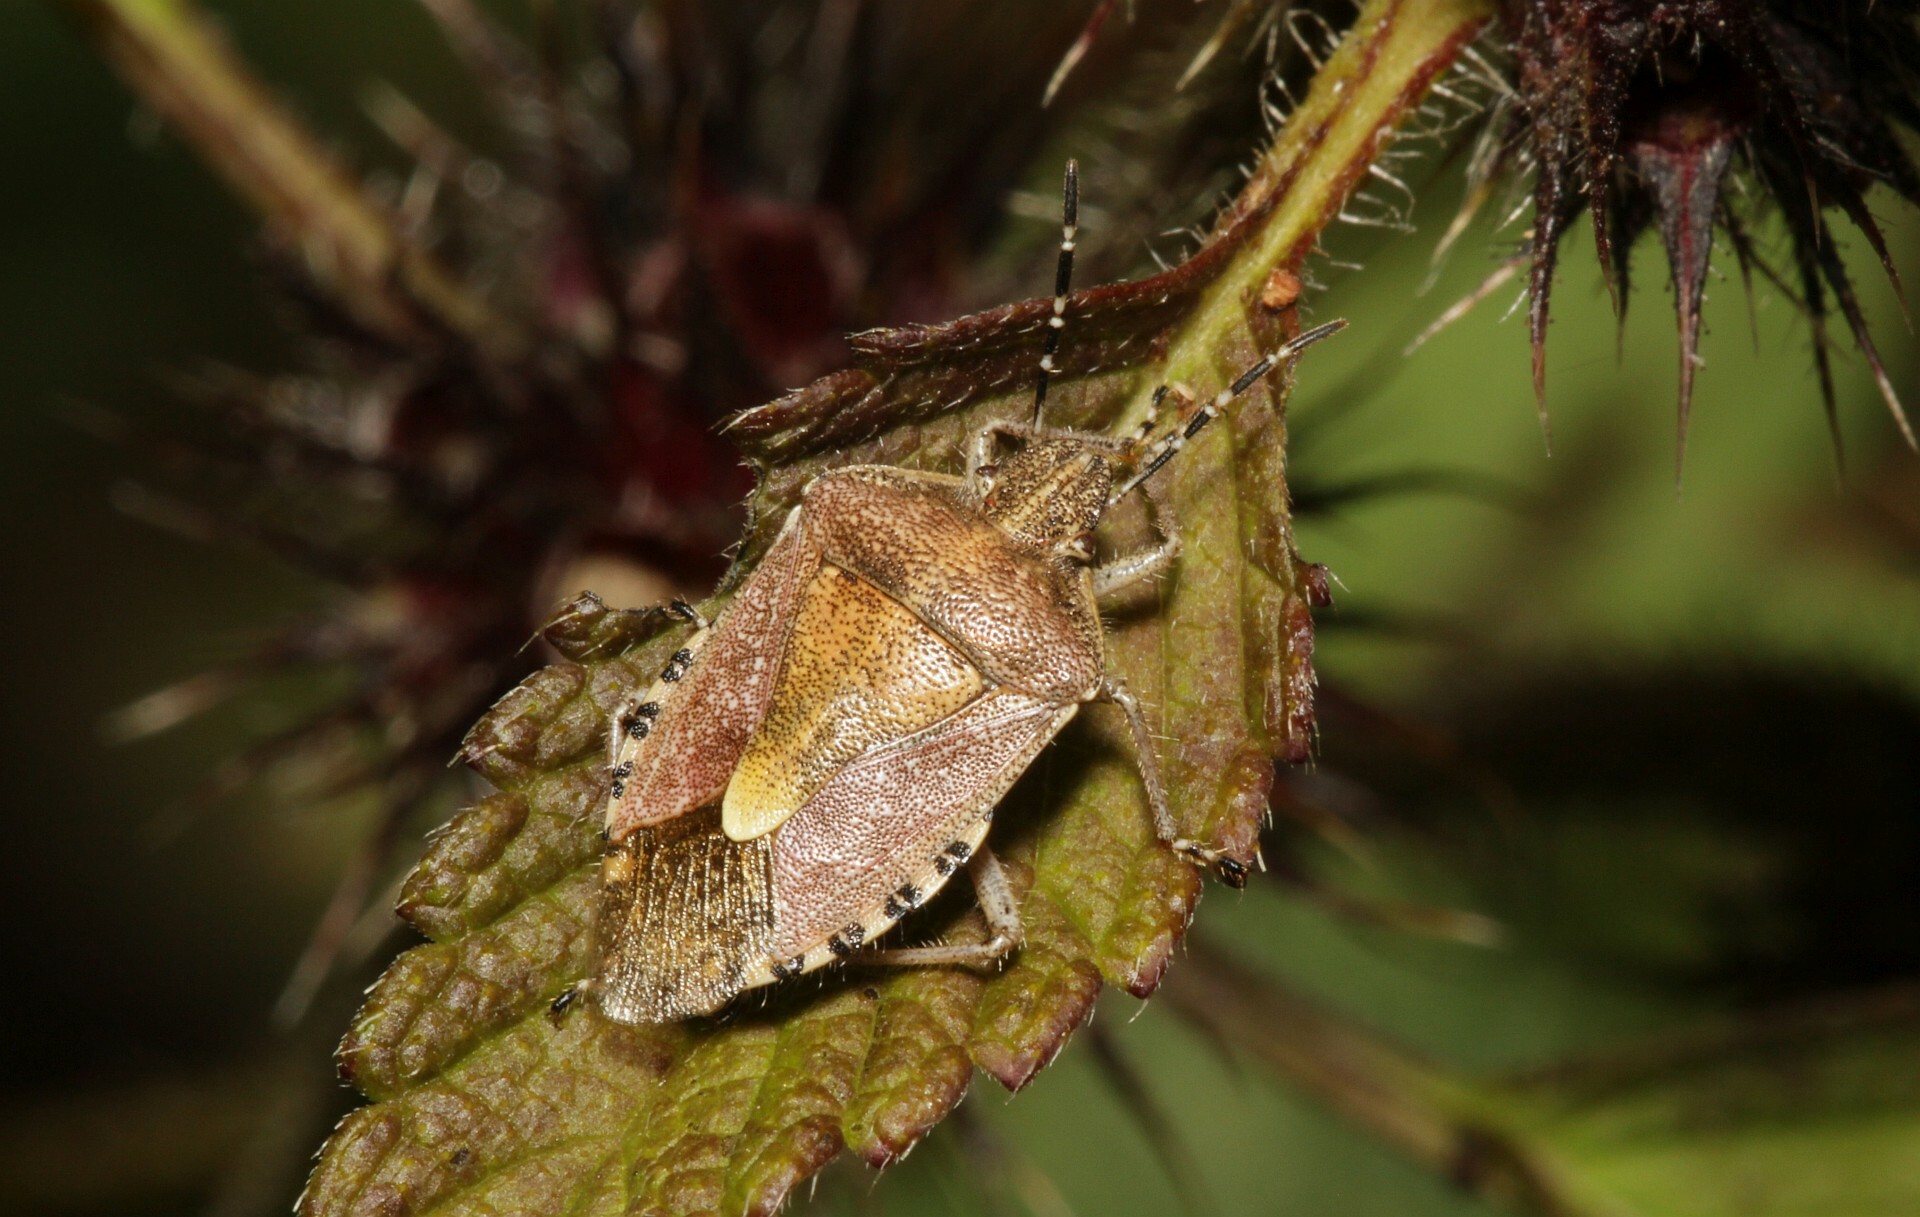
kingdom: Animalia
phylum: Arthropoda
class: Insecta
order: Hemiptera
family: Pentatomidae
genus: Dolycoris
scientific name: Dolycoris baccarum
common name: Sloe bug
